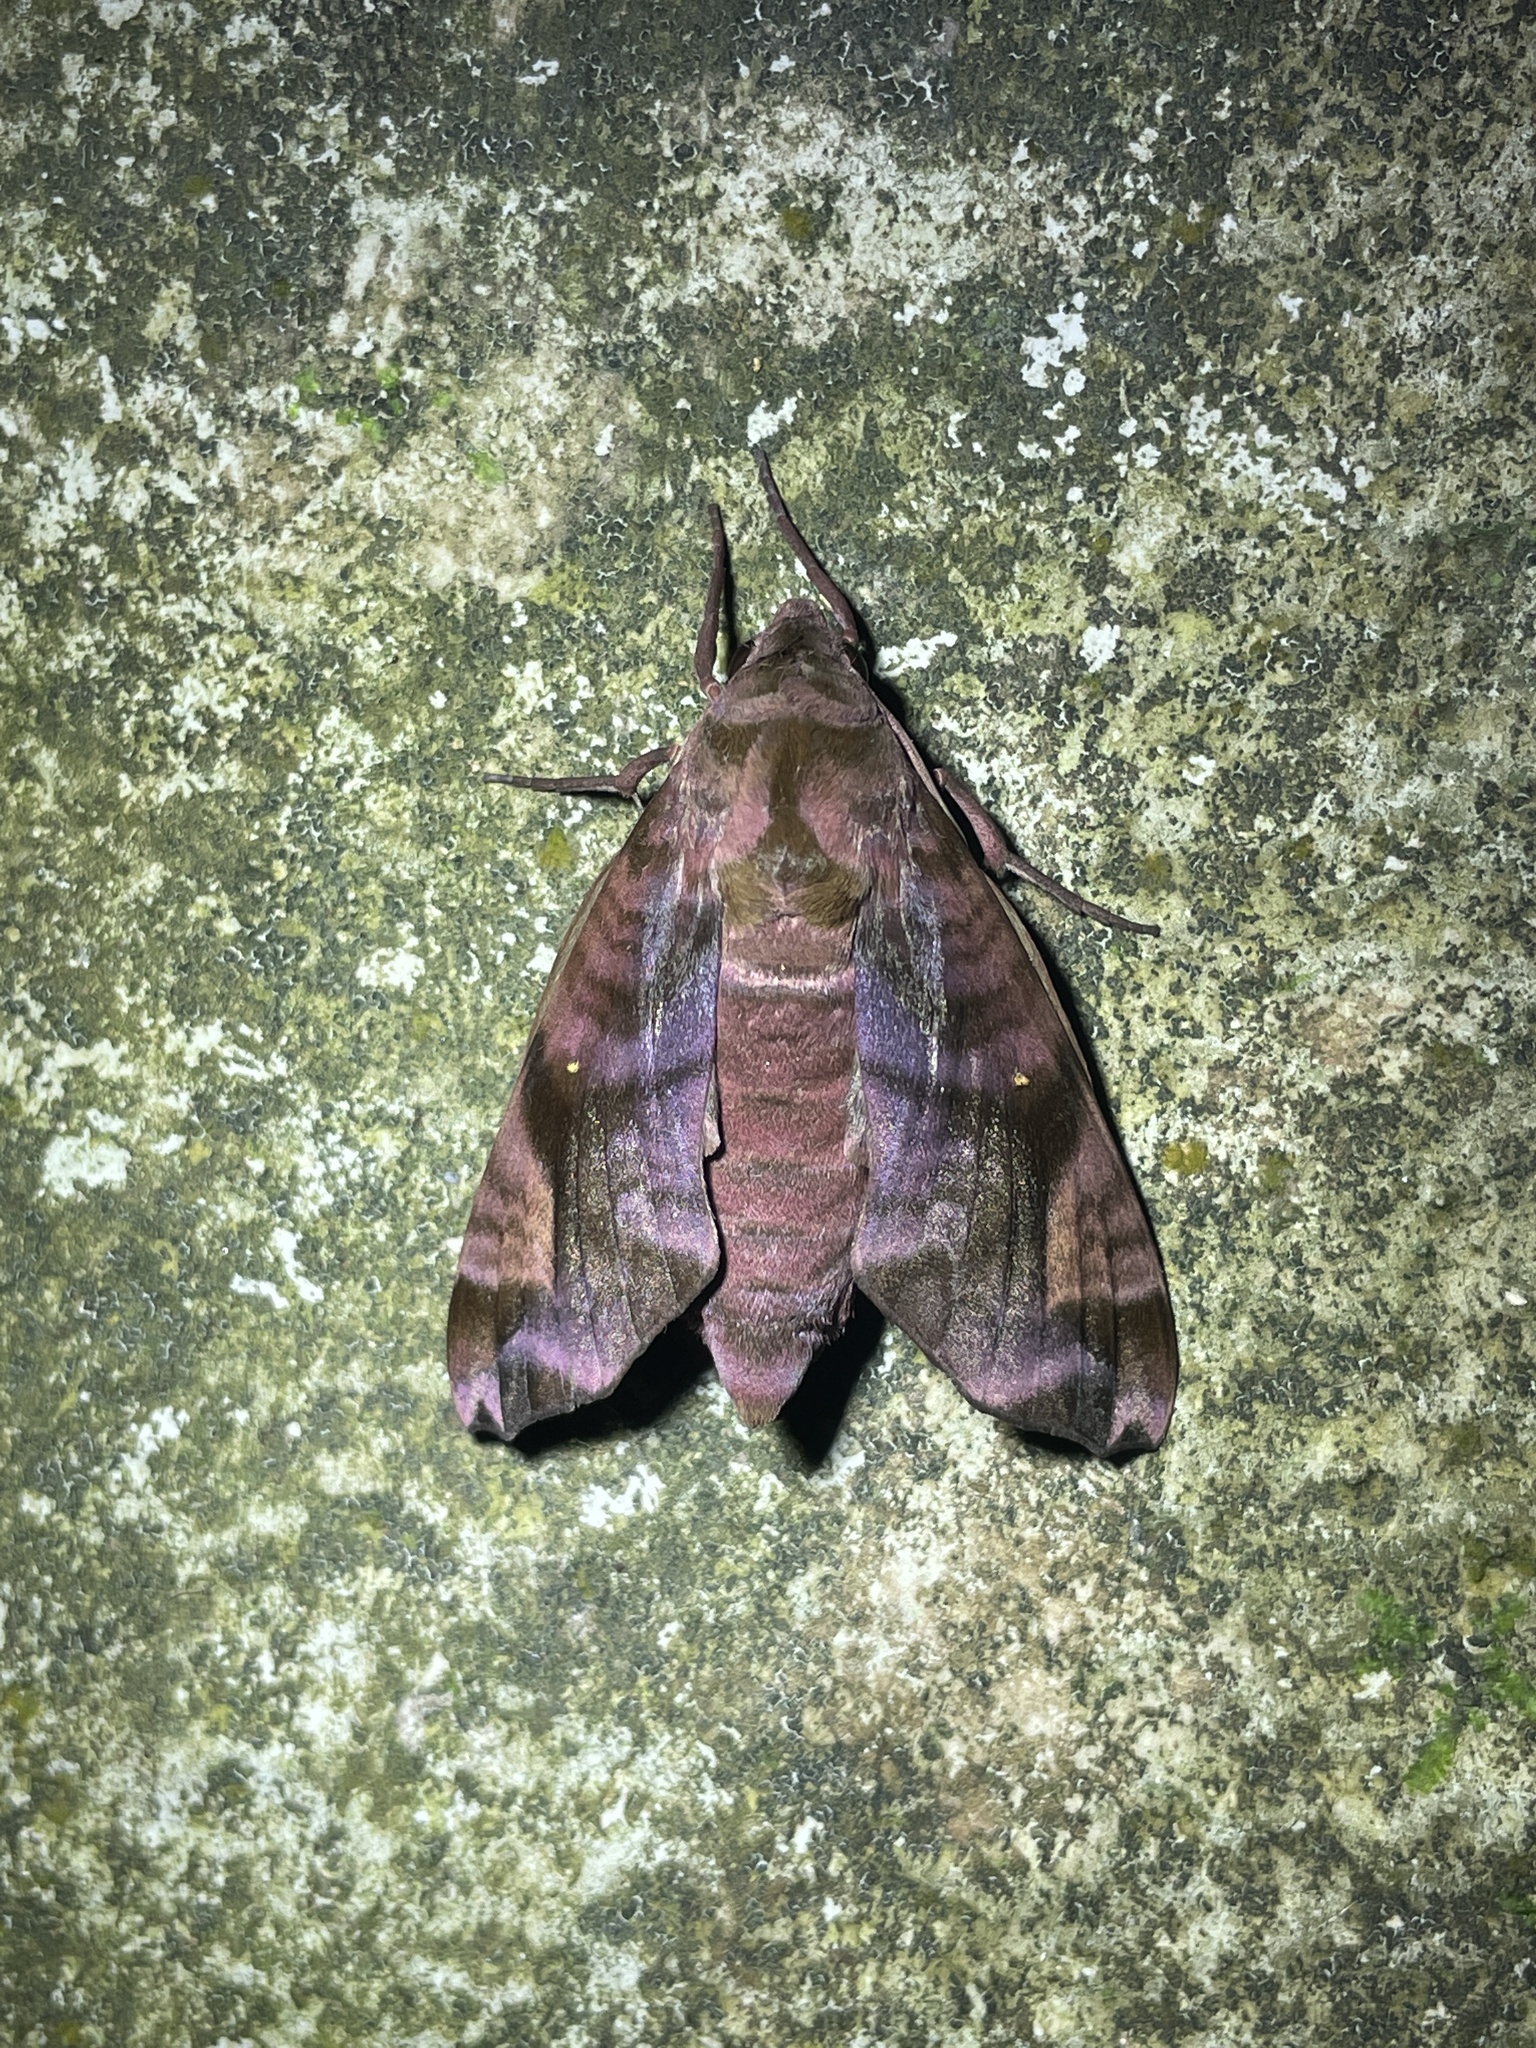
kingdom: Animalia
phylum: Arthropoda
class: Insecta
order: Lepidoptera
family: Sphingidae
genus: Acosmeryx
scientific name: Acosmeryx anceus
